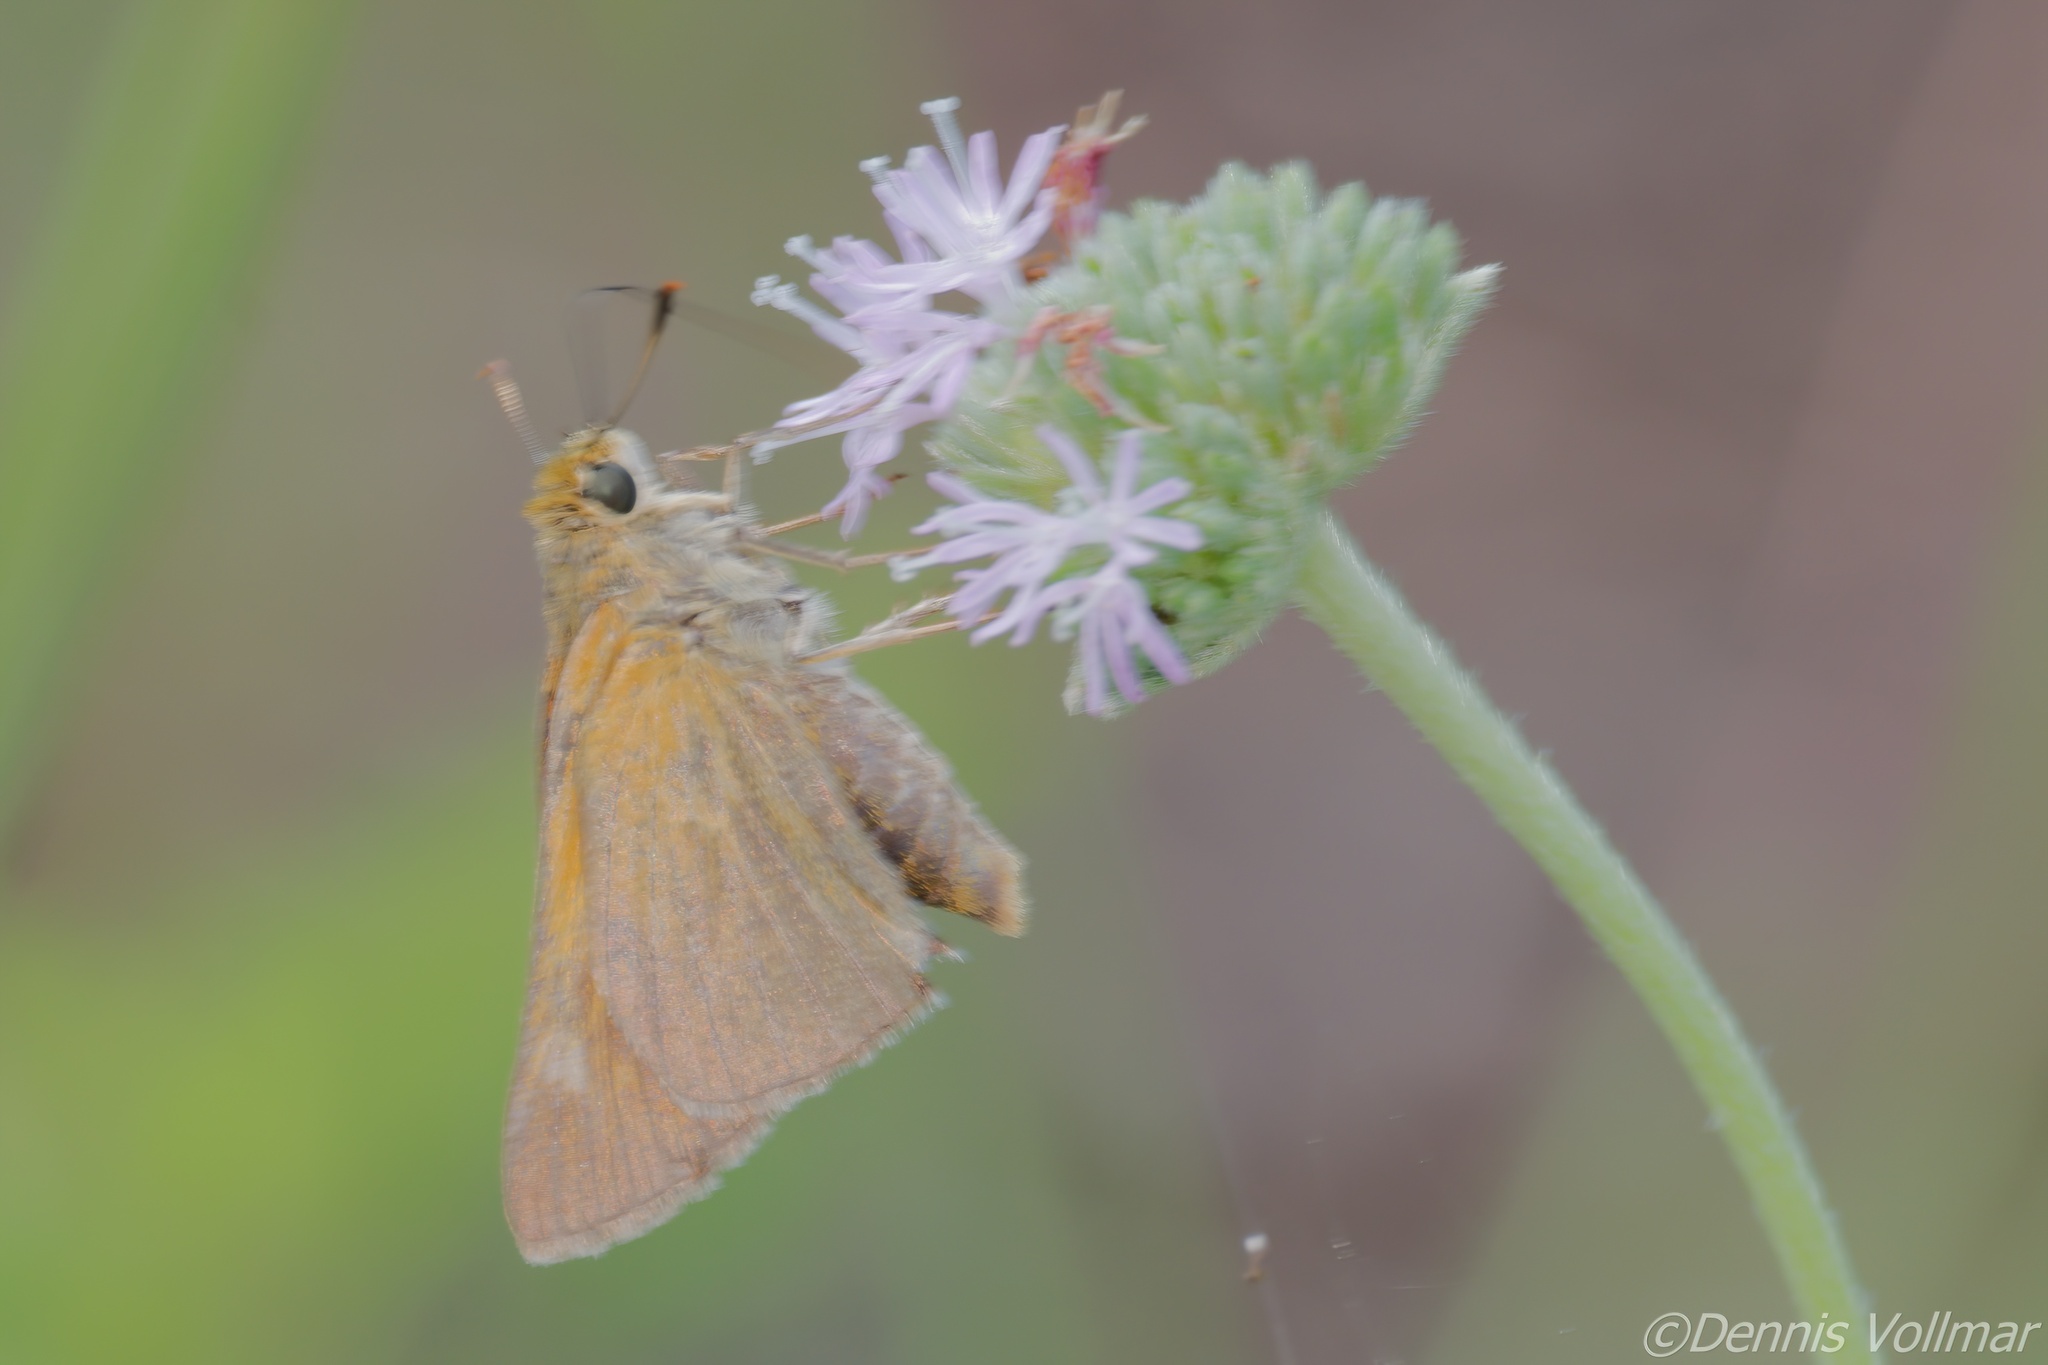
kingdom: Animalia
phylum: Arthropoda
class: Insecta
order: Lepidoptera
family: Hesperiidae
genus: Euphyes
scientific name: Euphyes berryi
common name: Berry's skipper
